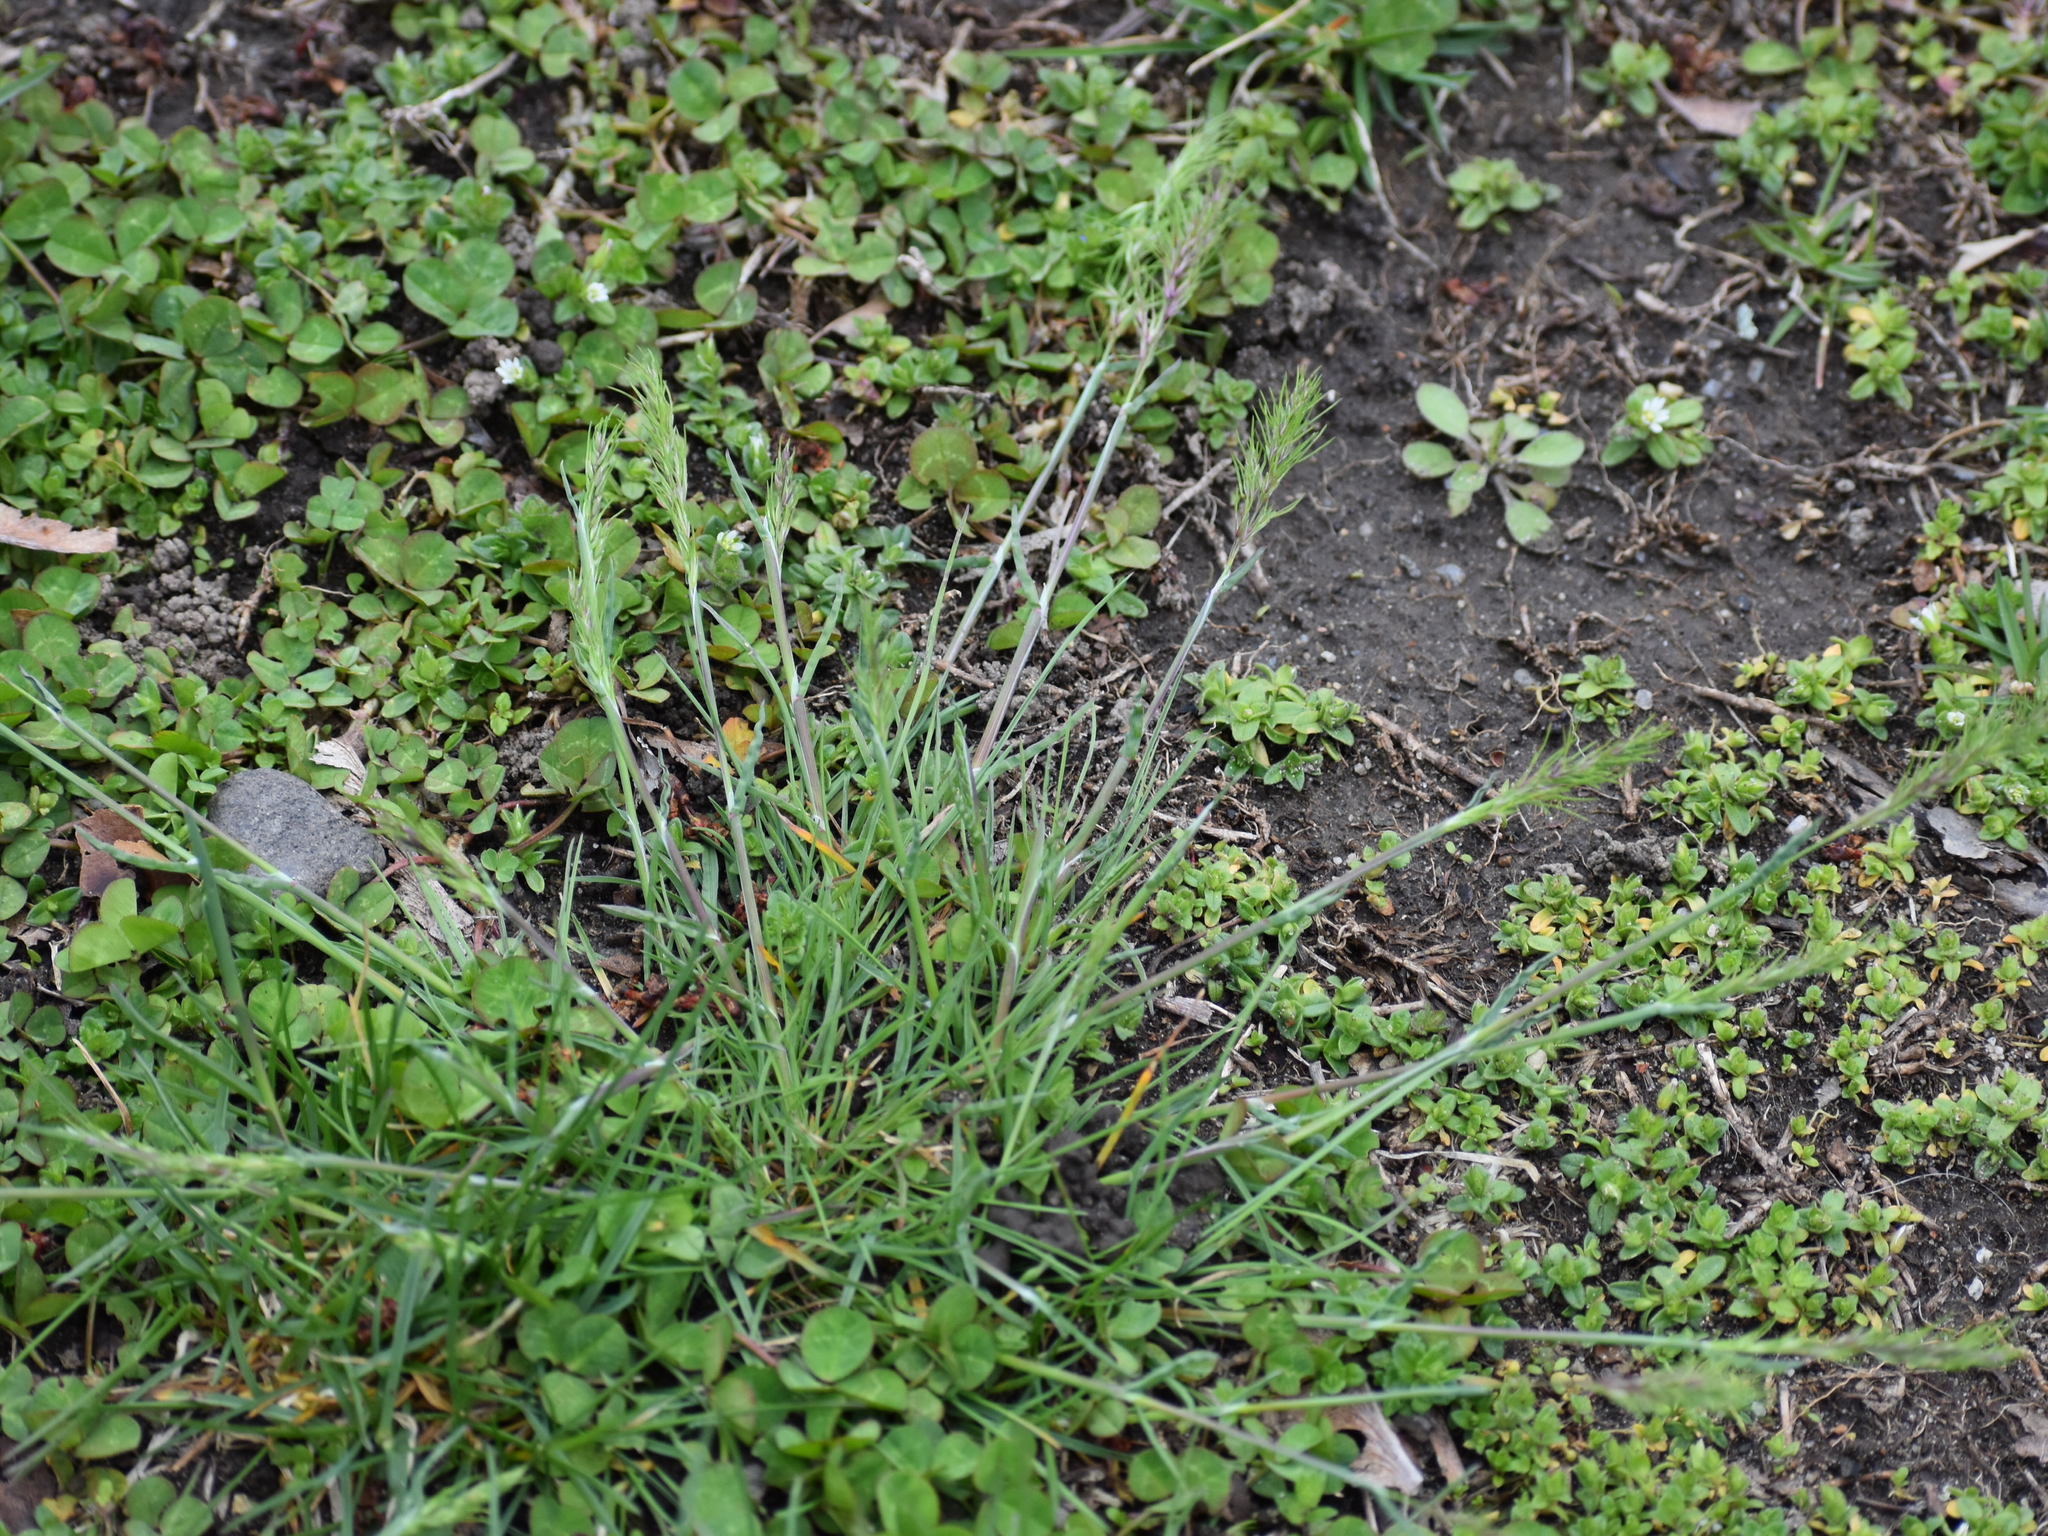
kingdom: Plantae
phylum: Tracheophyta
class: Liliopsida
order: Poales
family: Poaceae
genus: Poa
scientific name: Poa bulbosa
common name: Bulbous bluegrass
